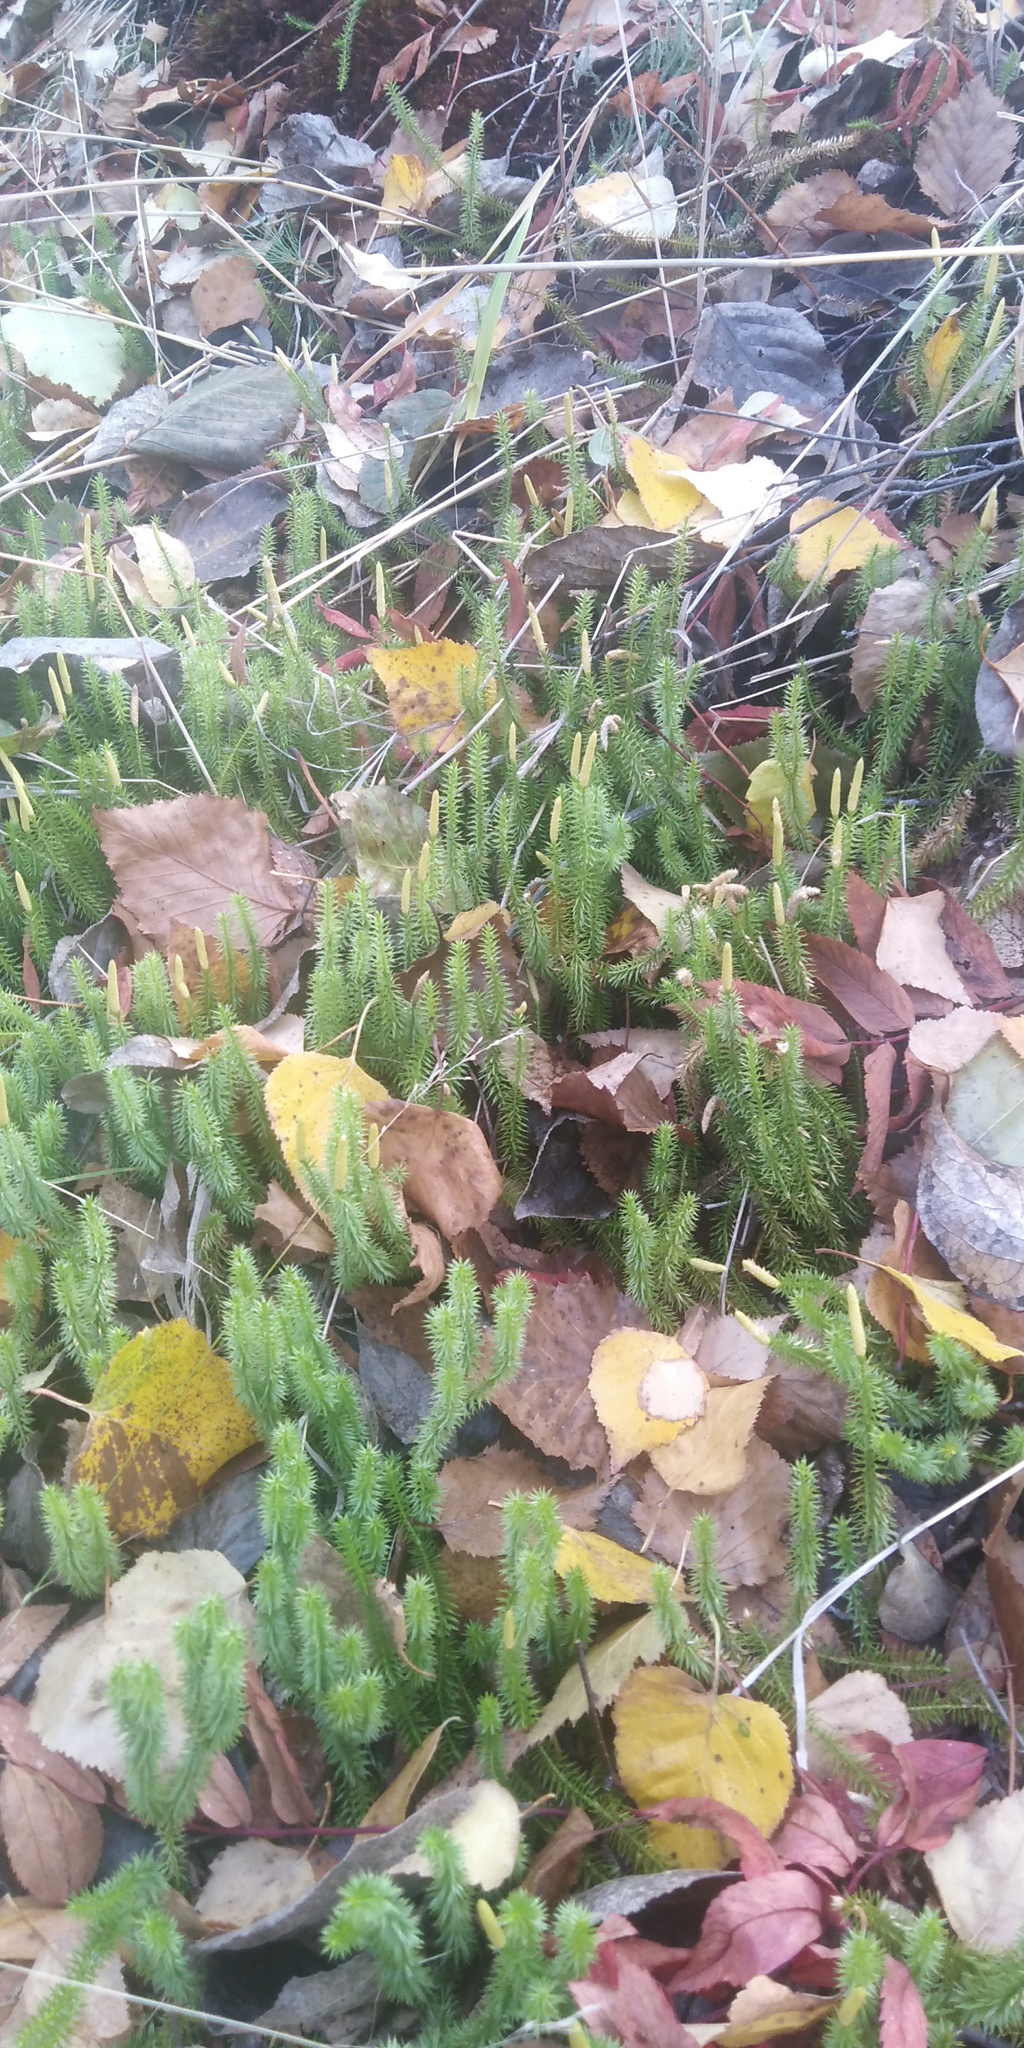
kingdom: Plantae
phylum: Tracheophyta
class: Lycopodiopsida
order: Lycopodiales
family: Lycopodiaceae
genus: Spinulum
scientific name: Spinulum annotinum
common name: Interrupted club-moss
